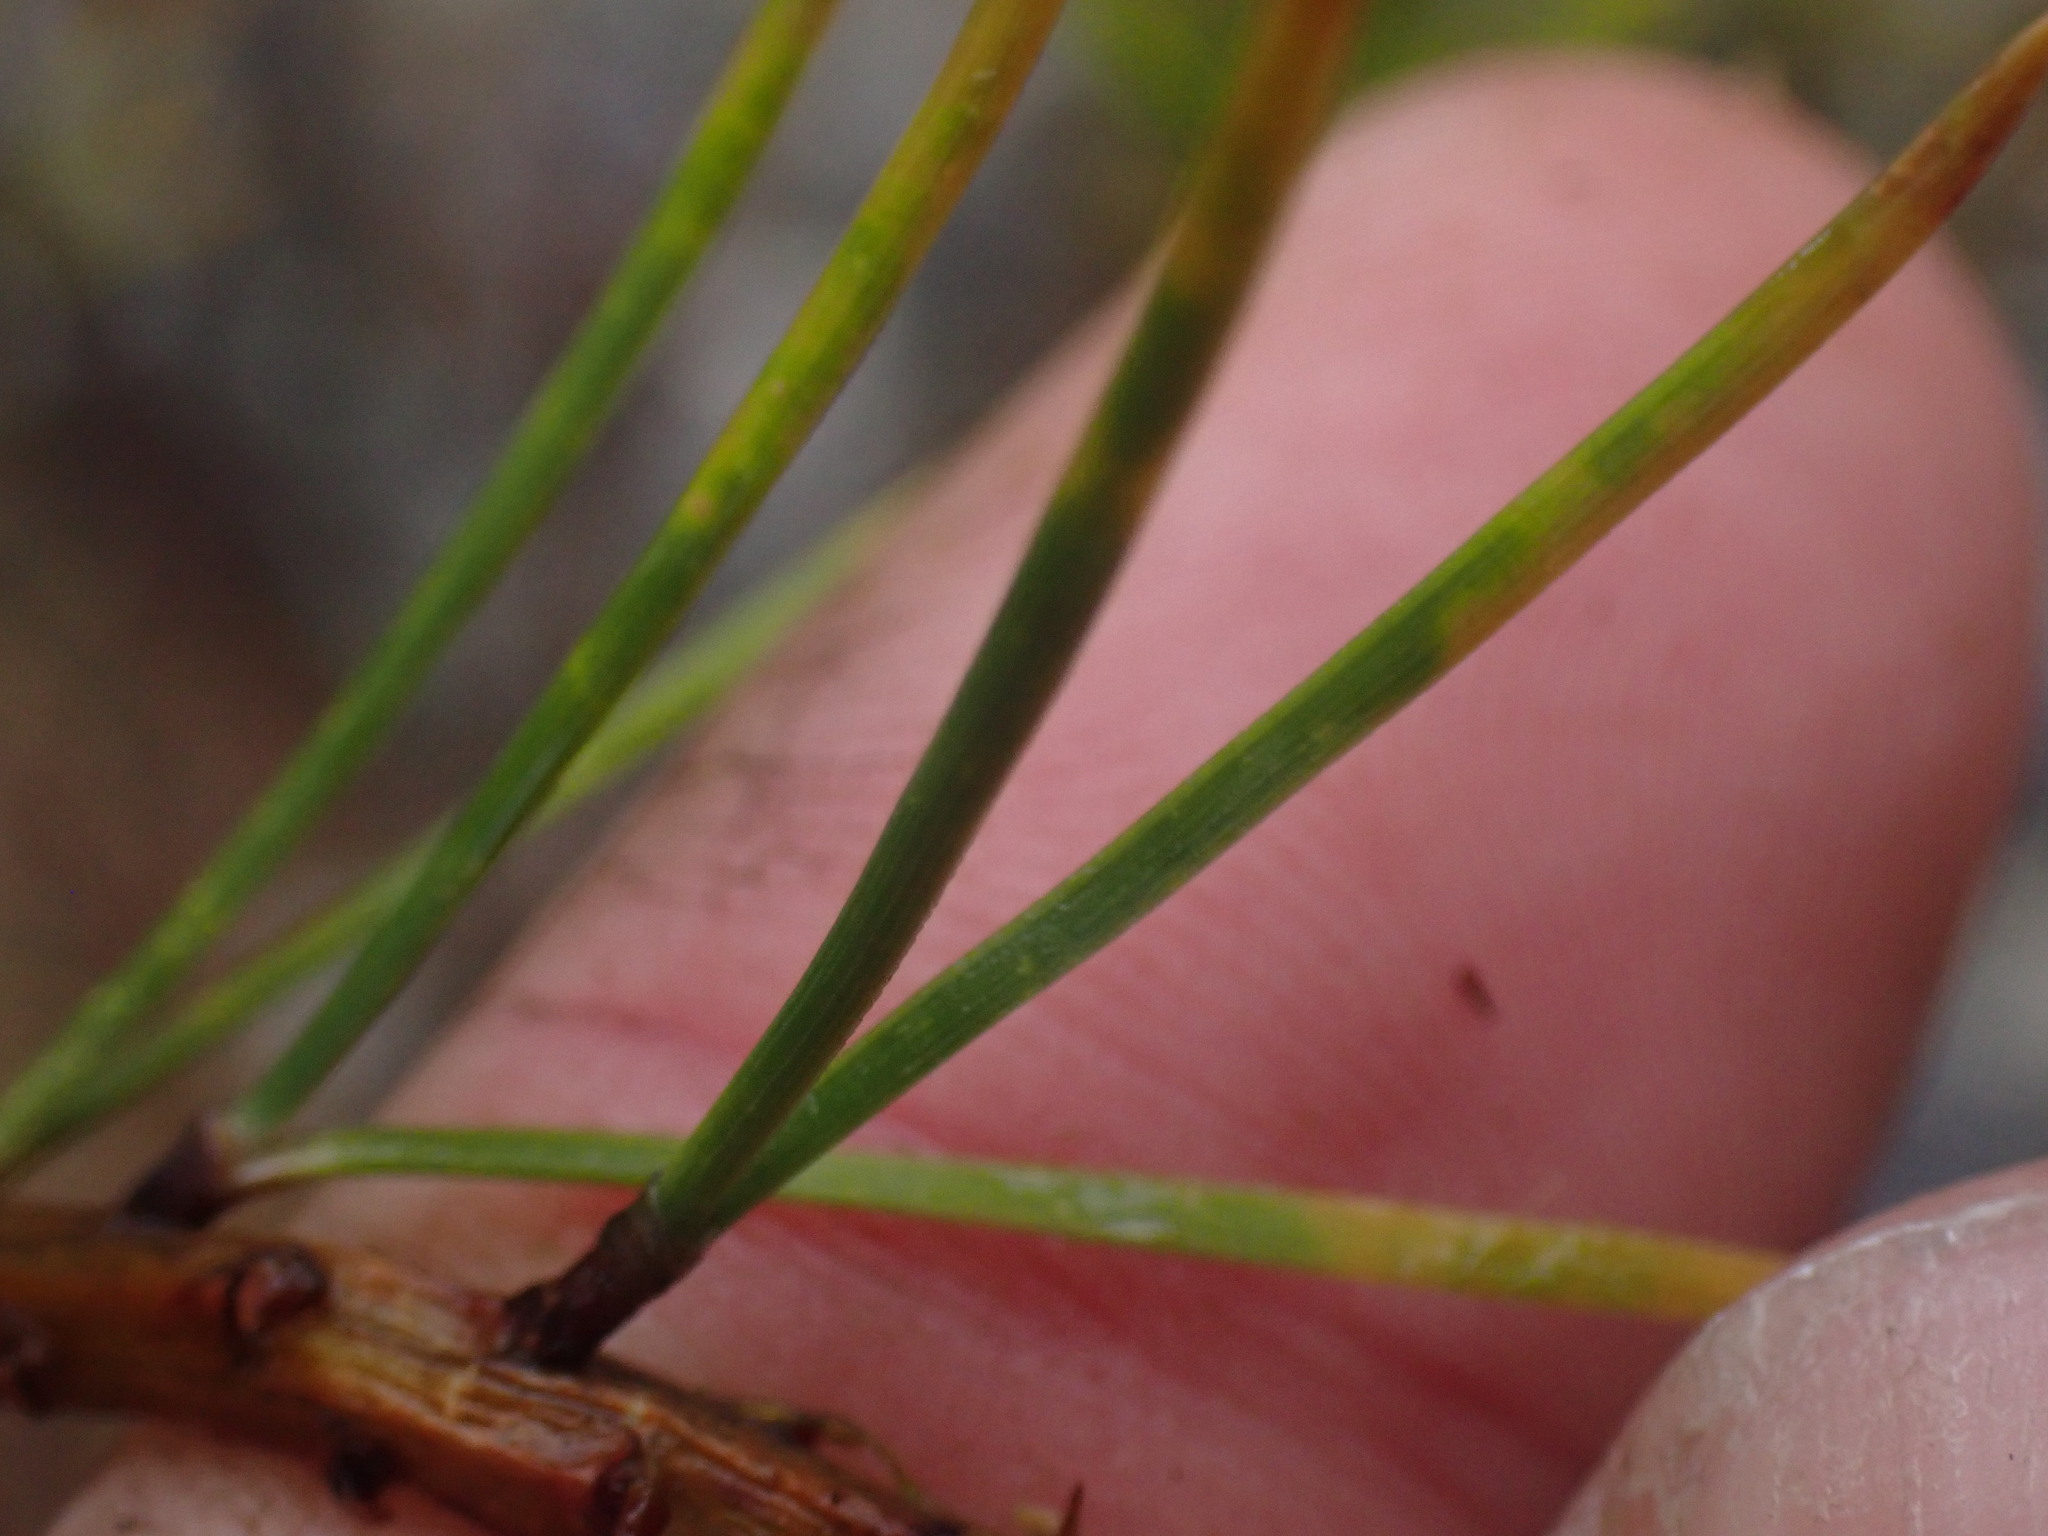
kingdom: Plantae
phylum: Tracheophyta
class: Pinopsida
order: Pinales
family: Pinaceae
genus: Pinus
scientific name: Pinus contorta
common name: Lodgepole pine
